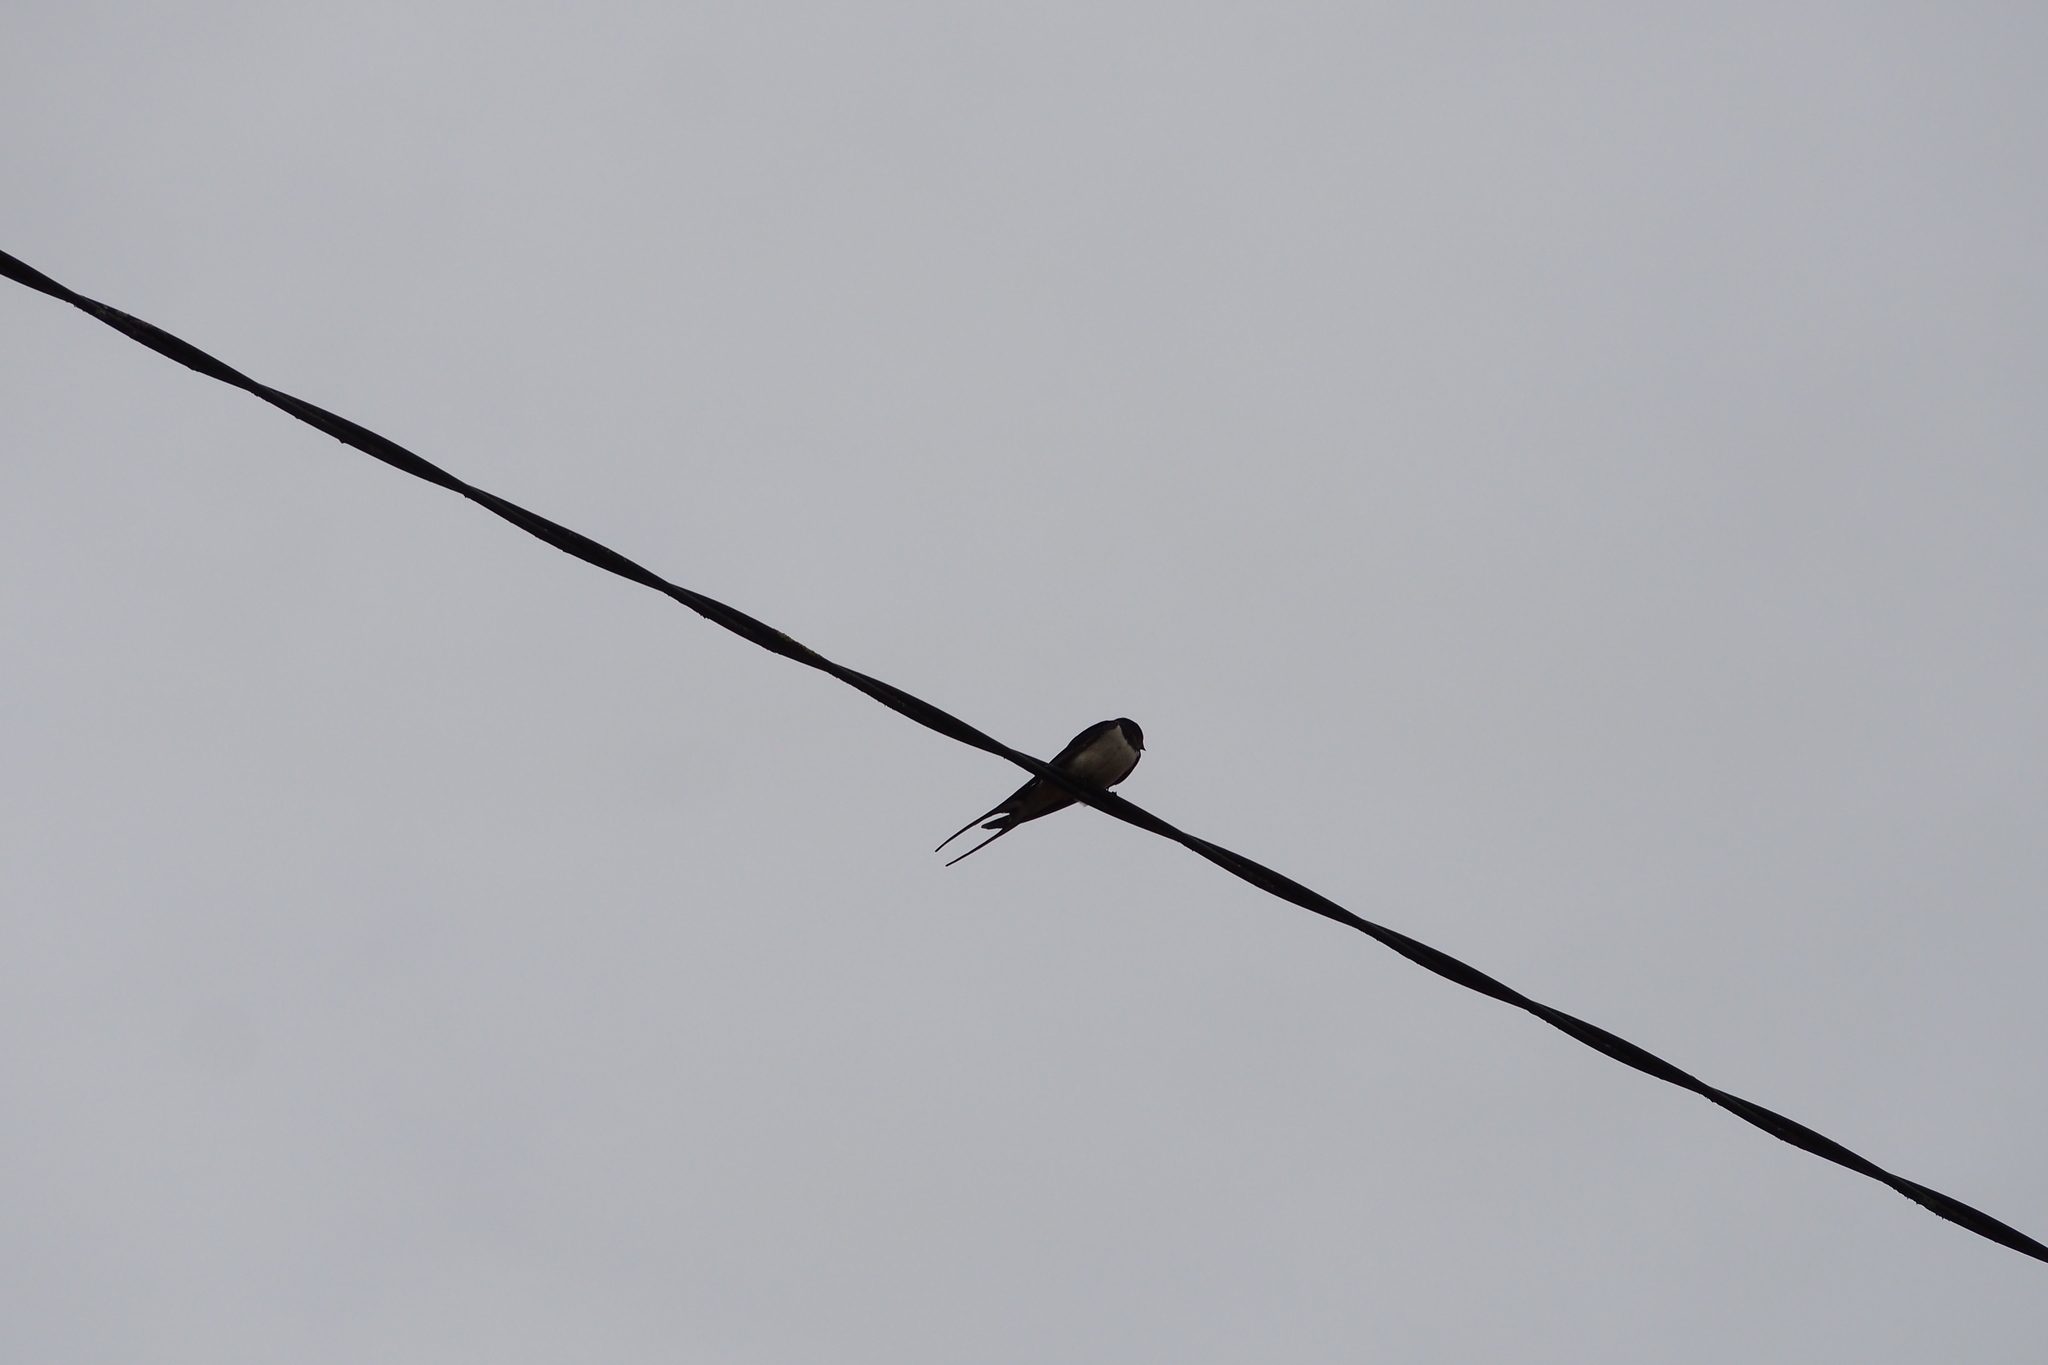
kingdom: Animalia
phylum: Chordata
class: Aves
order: Passeriformes
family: Hirundinidae
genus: Hirundo
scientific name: Hirundo rustica
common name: Barn swallow
